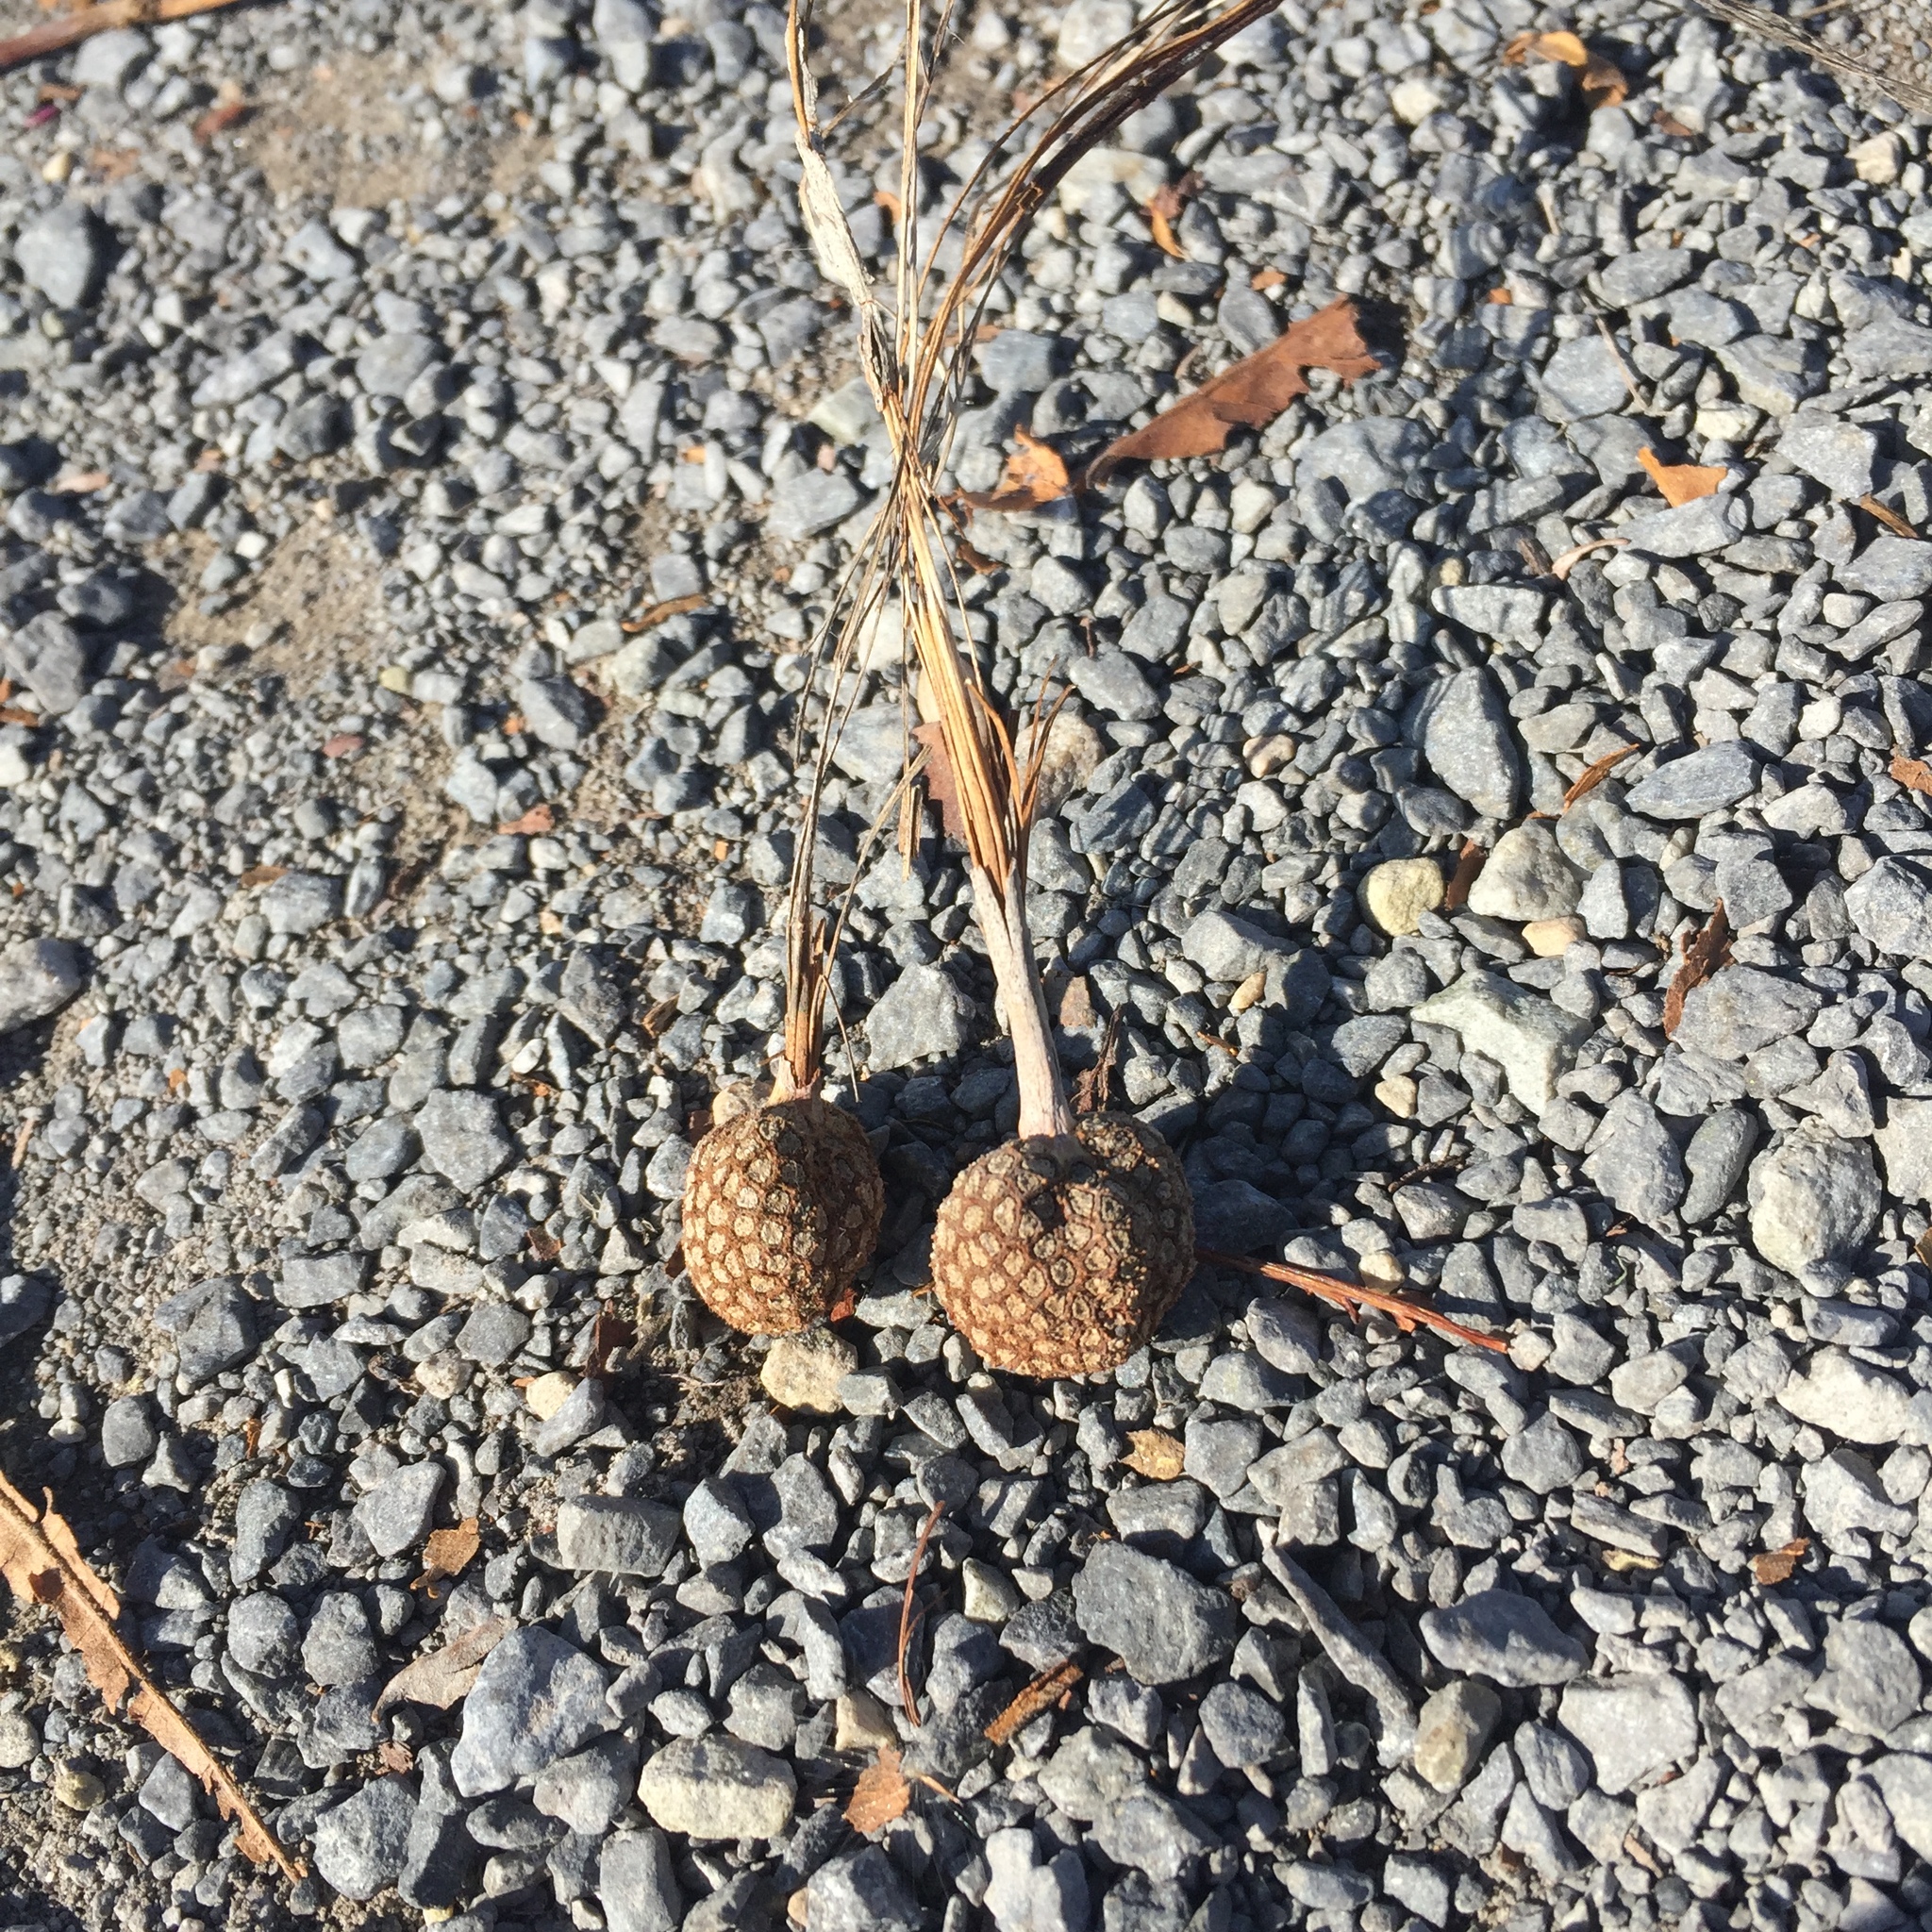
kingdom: Plantae
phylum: Tracheophyta
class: Magnoliopsida
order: Proteales
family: Platanaceae
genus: Platanus
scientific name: Platanus occidentalis
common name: American sycamore
